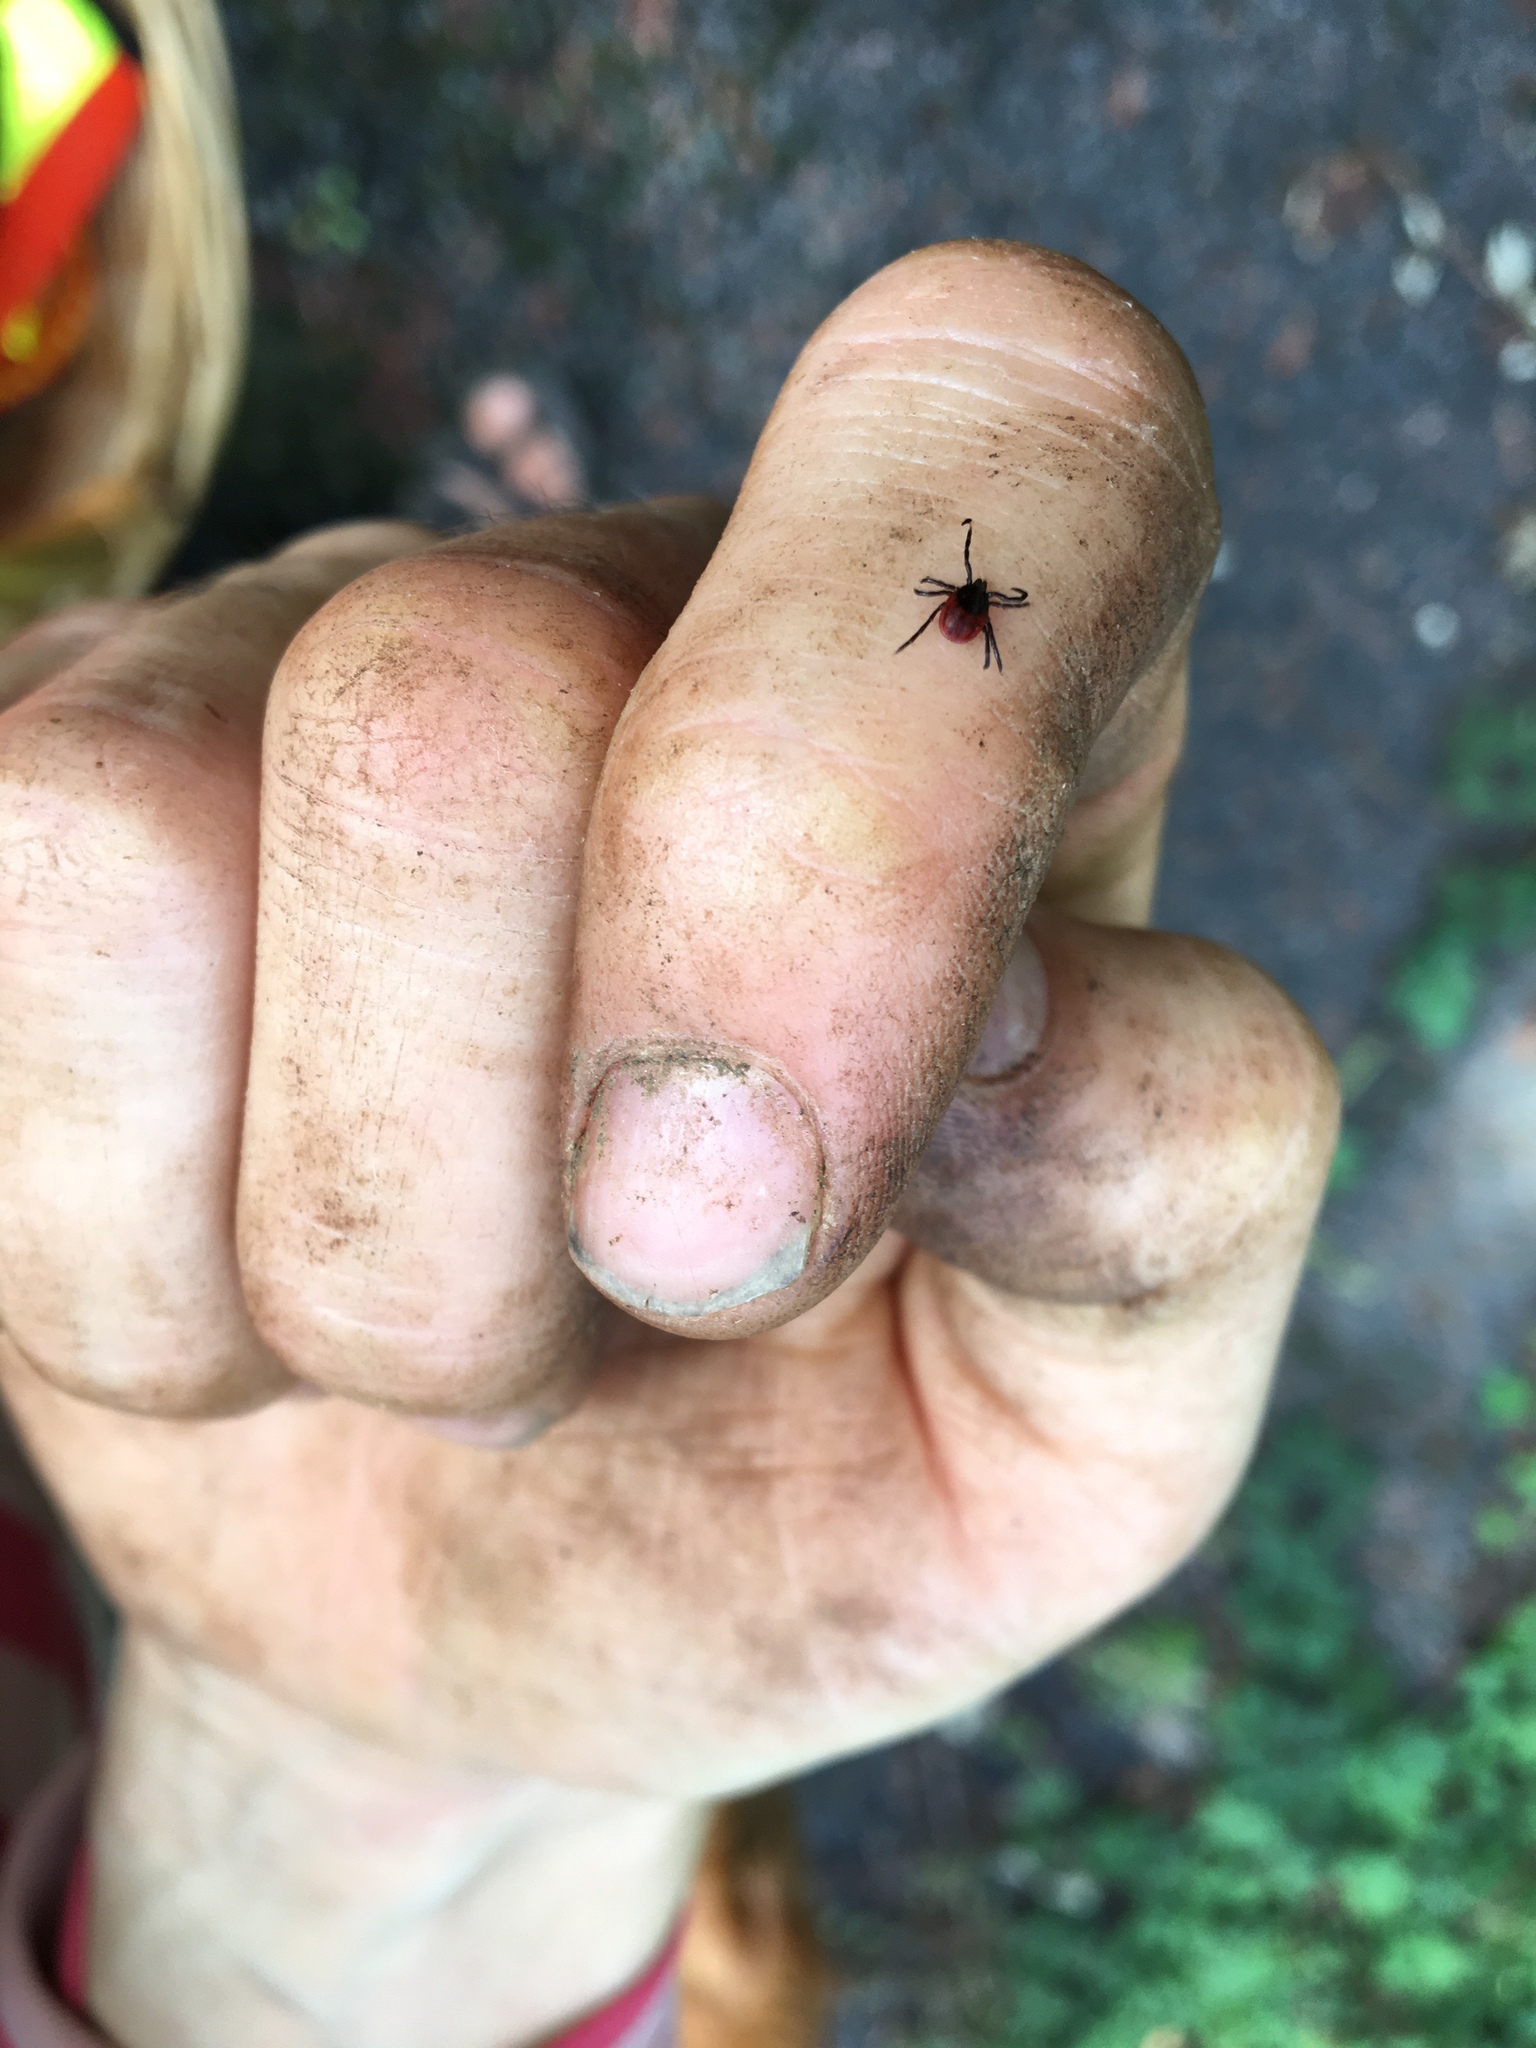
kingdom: Animalia
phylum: Arthropoda
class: Arachnida
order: Ixodida
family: Ixodidae
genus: Ixodes
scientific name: Ixodes pacificus
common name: California black-legged tick
